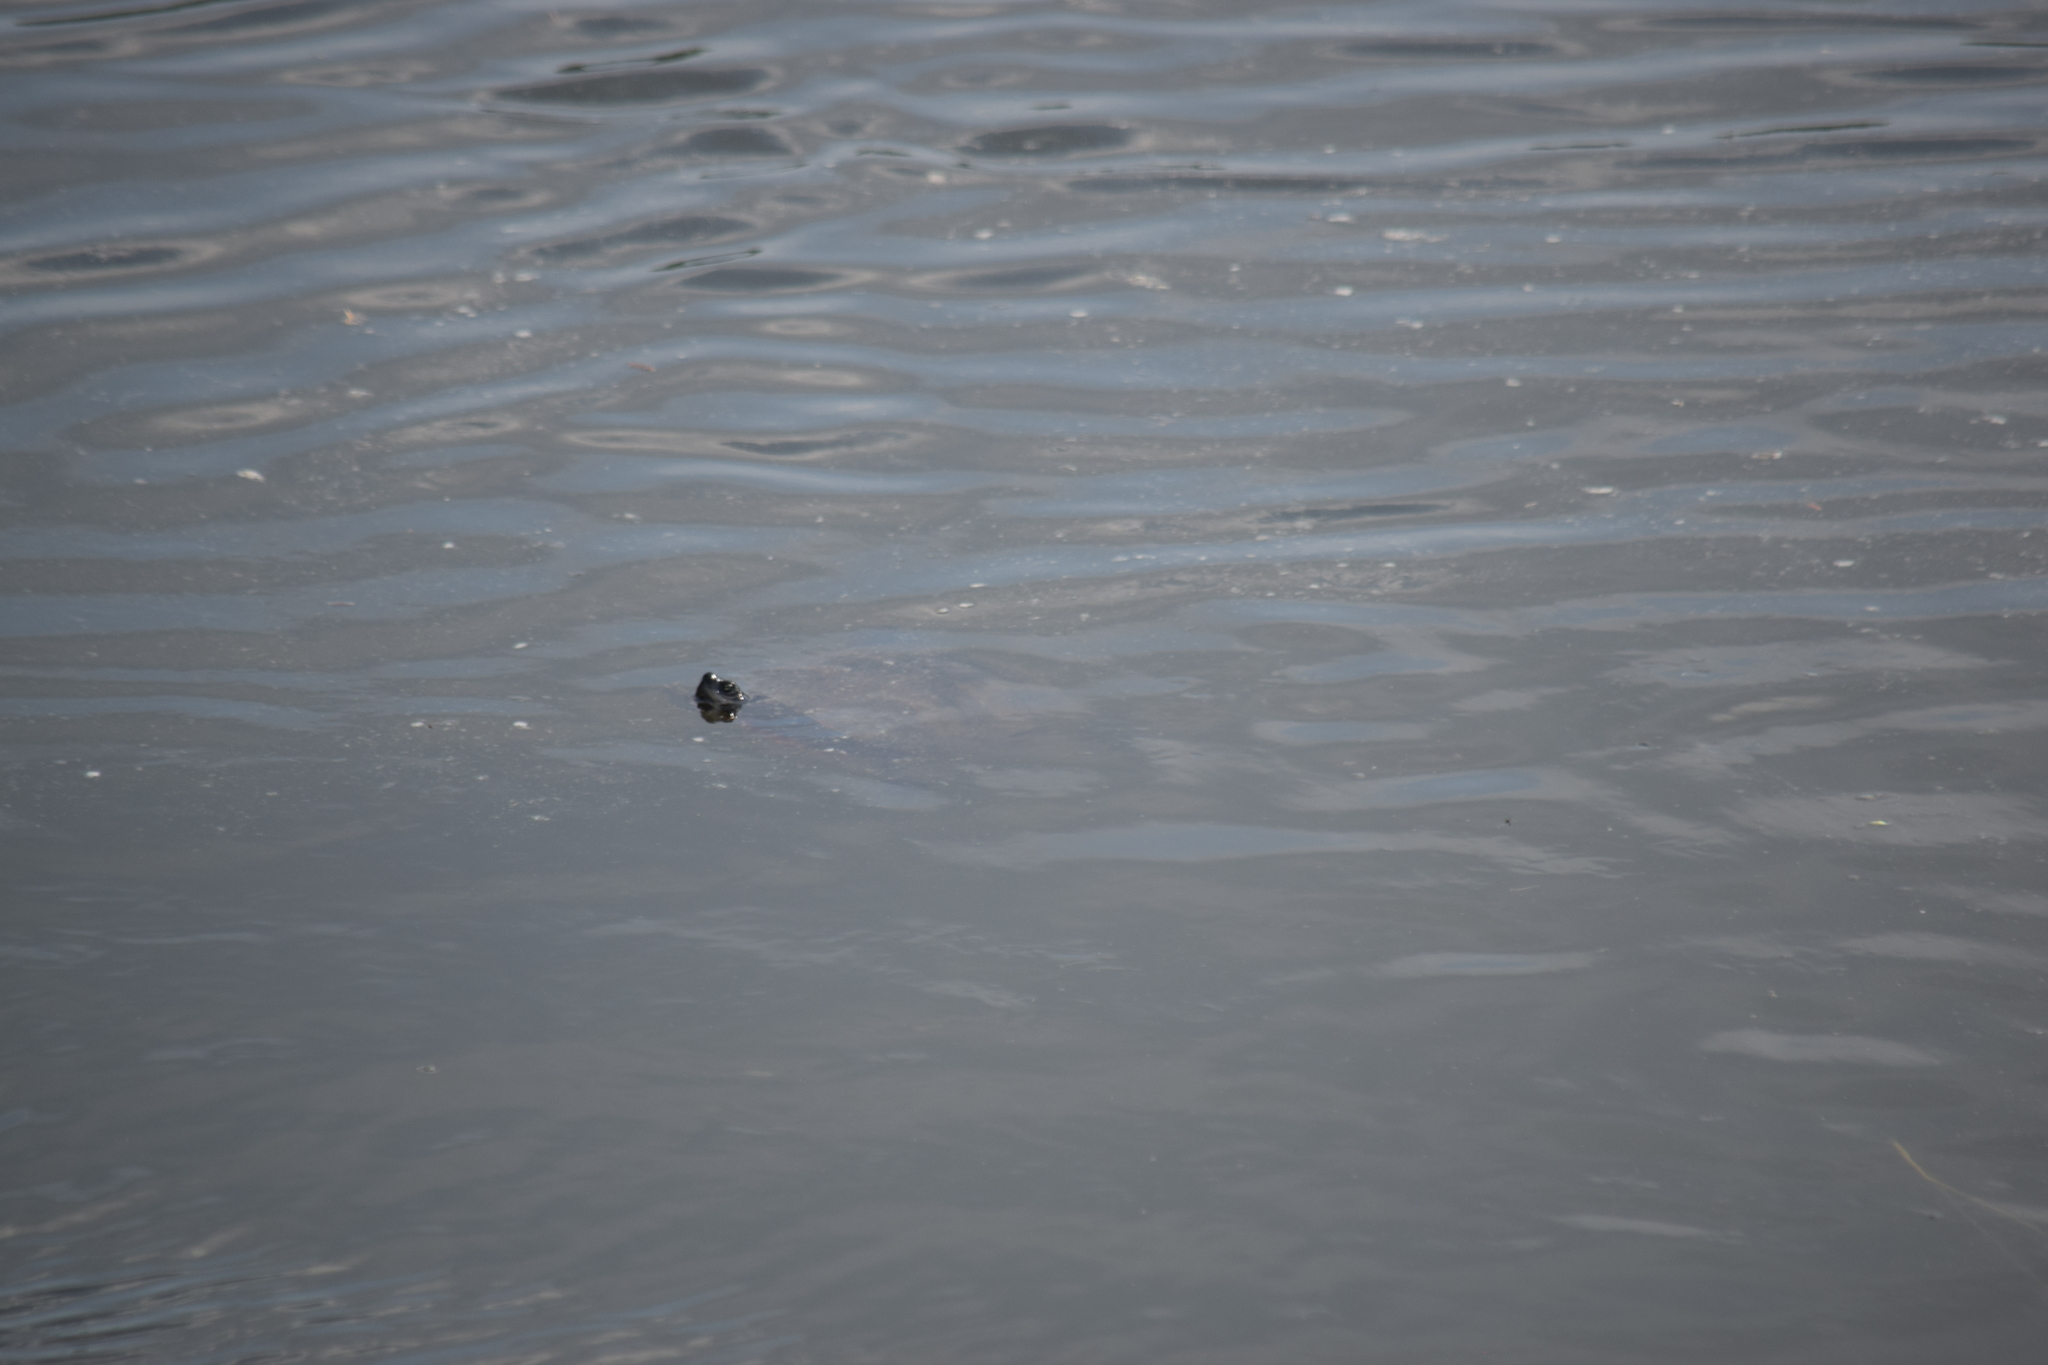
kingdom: Animalia
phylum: Chordata
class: Testudines
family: Emydidae
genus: Pseudemys
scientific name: Pseudemys rubriventris
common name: American red-bellied turtle
